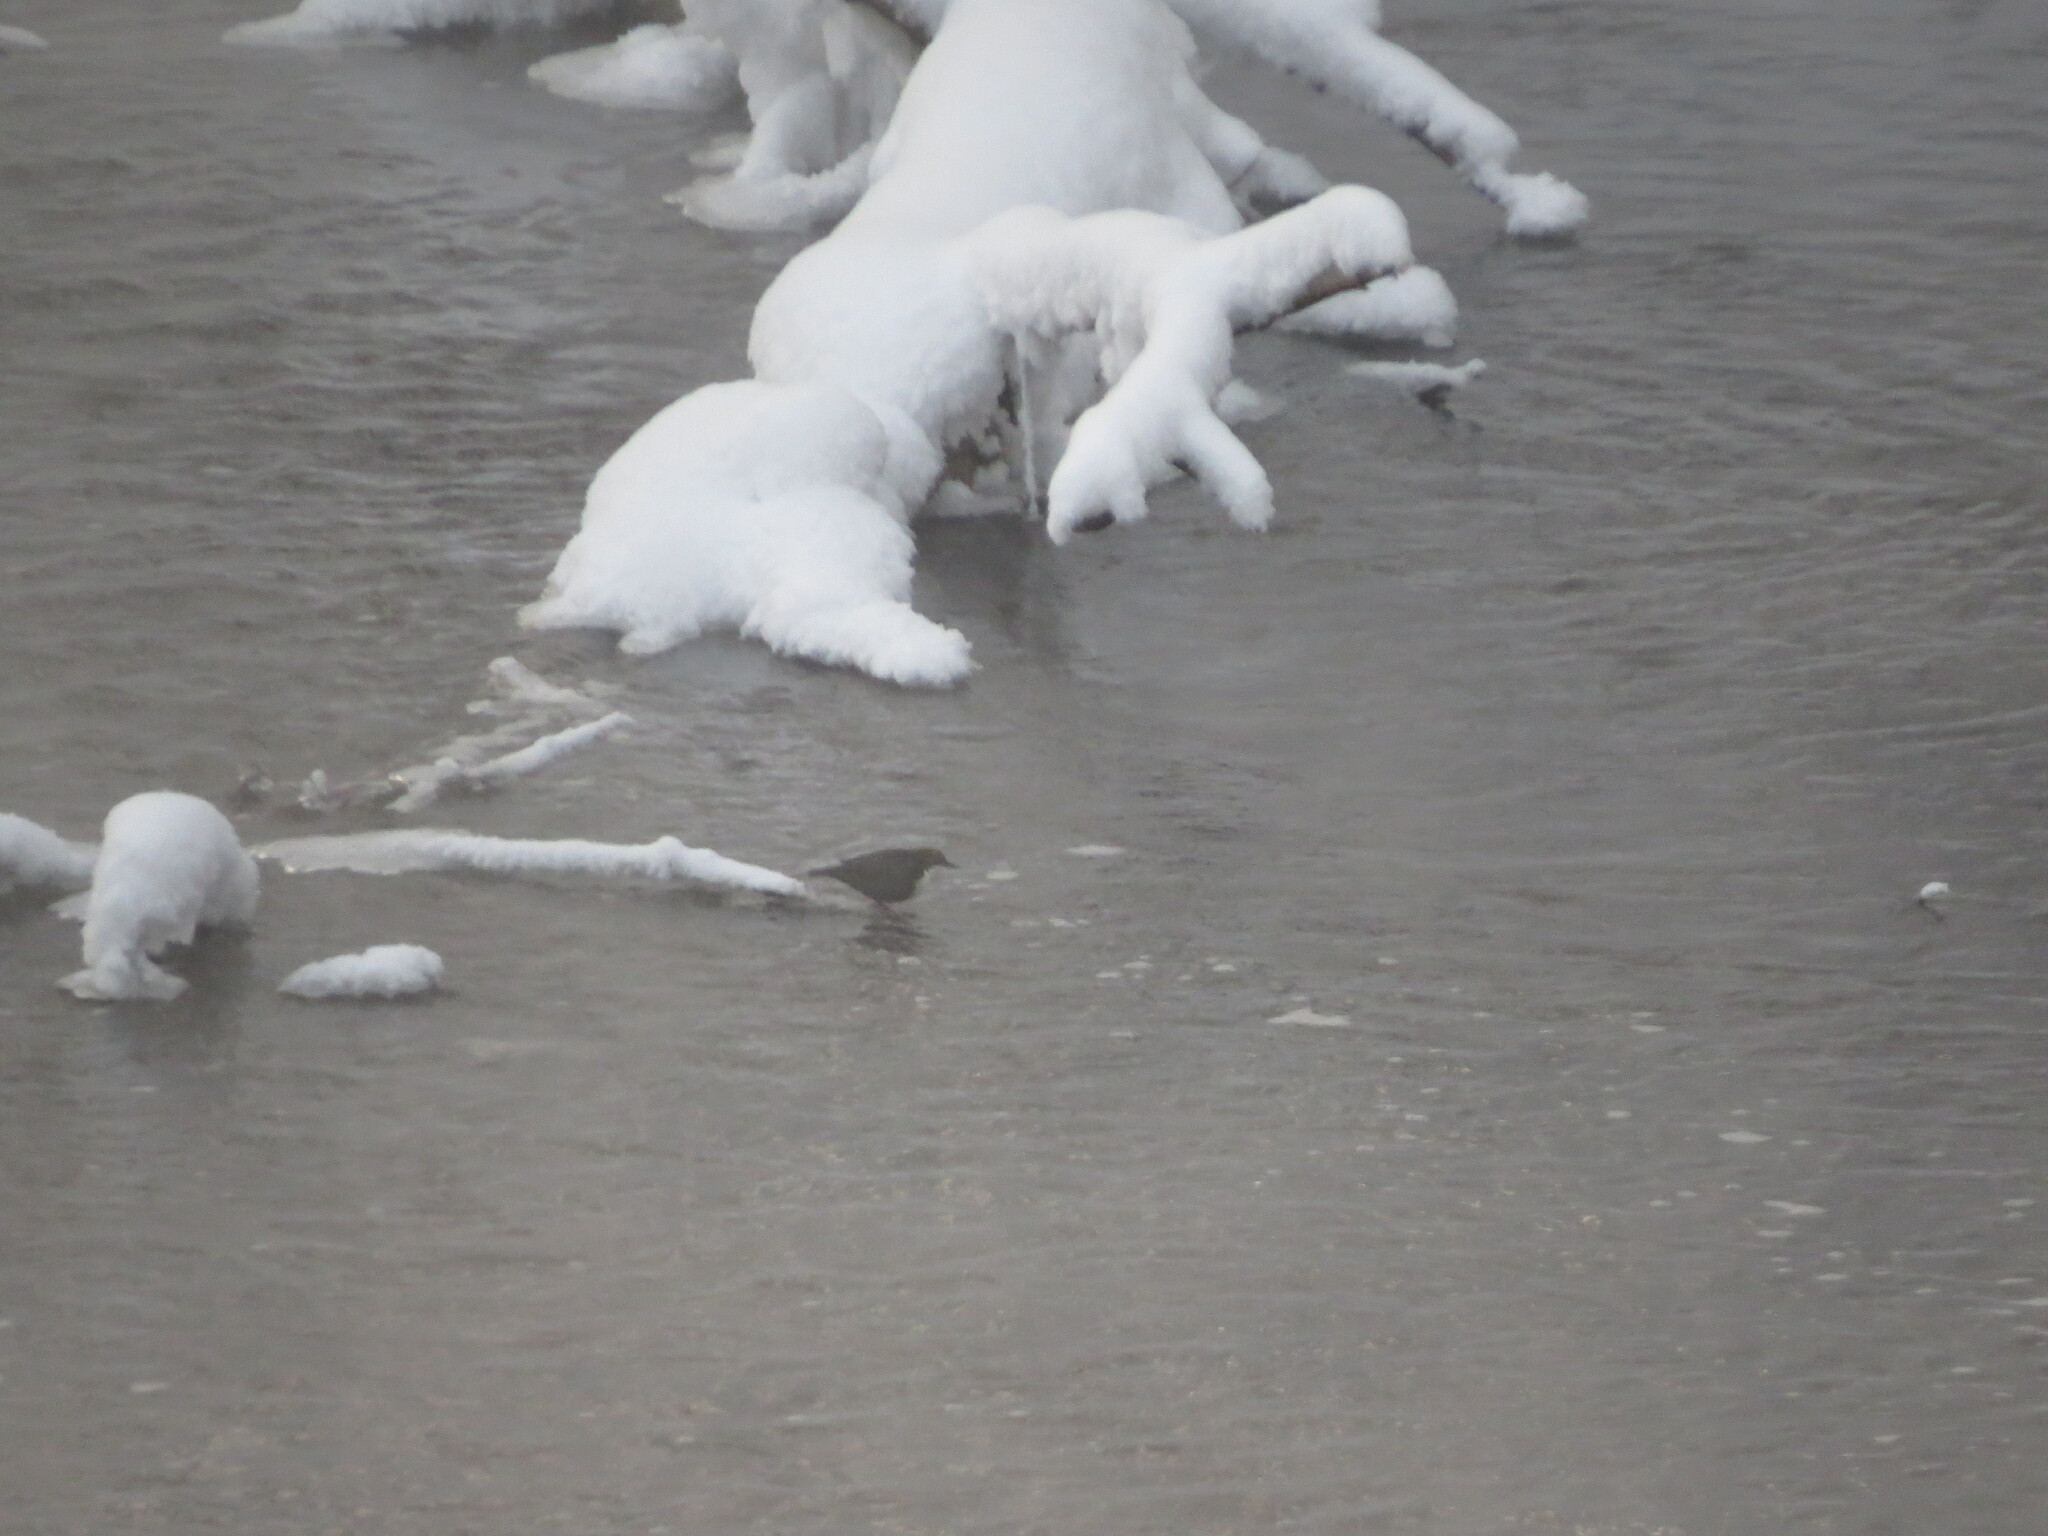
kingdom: Animalia
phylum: Chordata
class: Aves
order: Passeriformes
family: Cinclidae
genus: Cinclus
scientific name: Cinclus cinclus
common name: White-throated dipper
